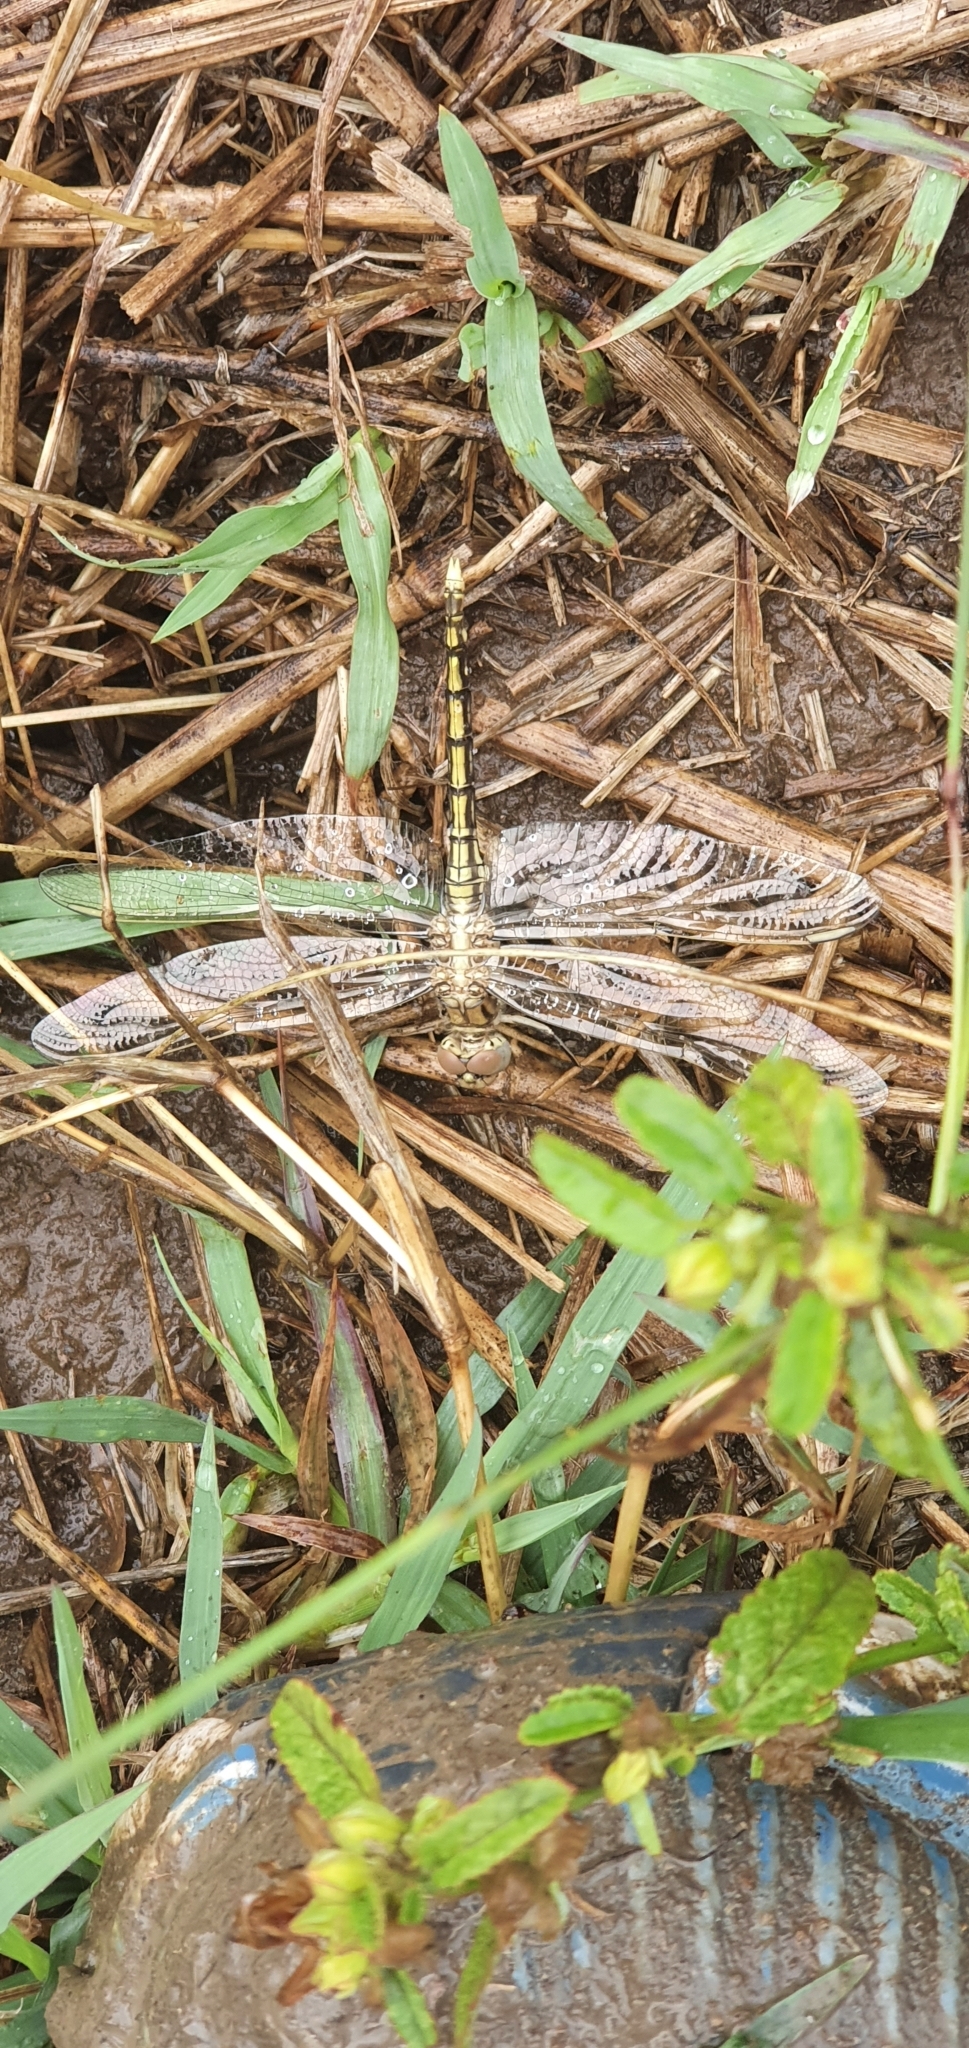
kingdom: Animalia
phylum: Arthropoda
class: Insecta
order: Odonata
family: Libellulidae
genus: Orthetrum
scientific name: Orthetrum caledonicum
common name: Blue skimmer
